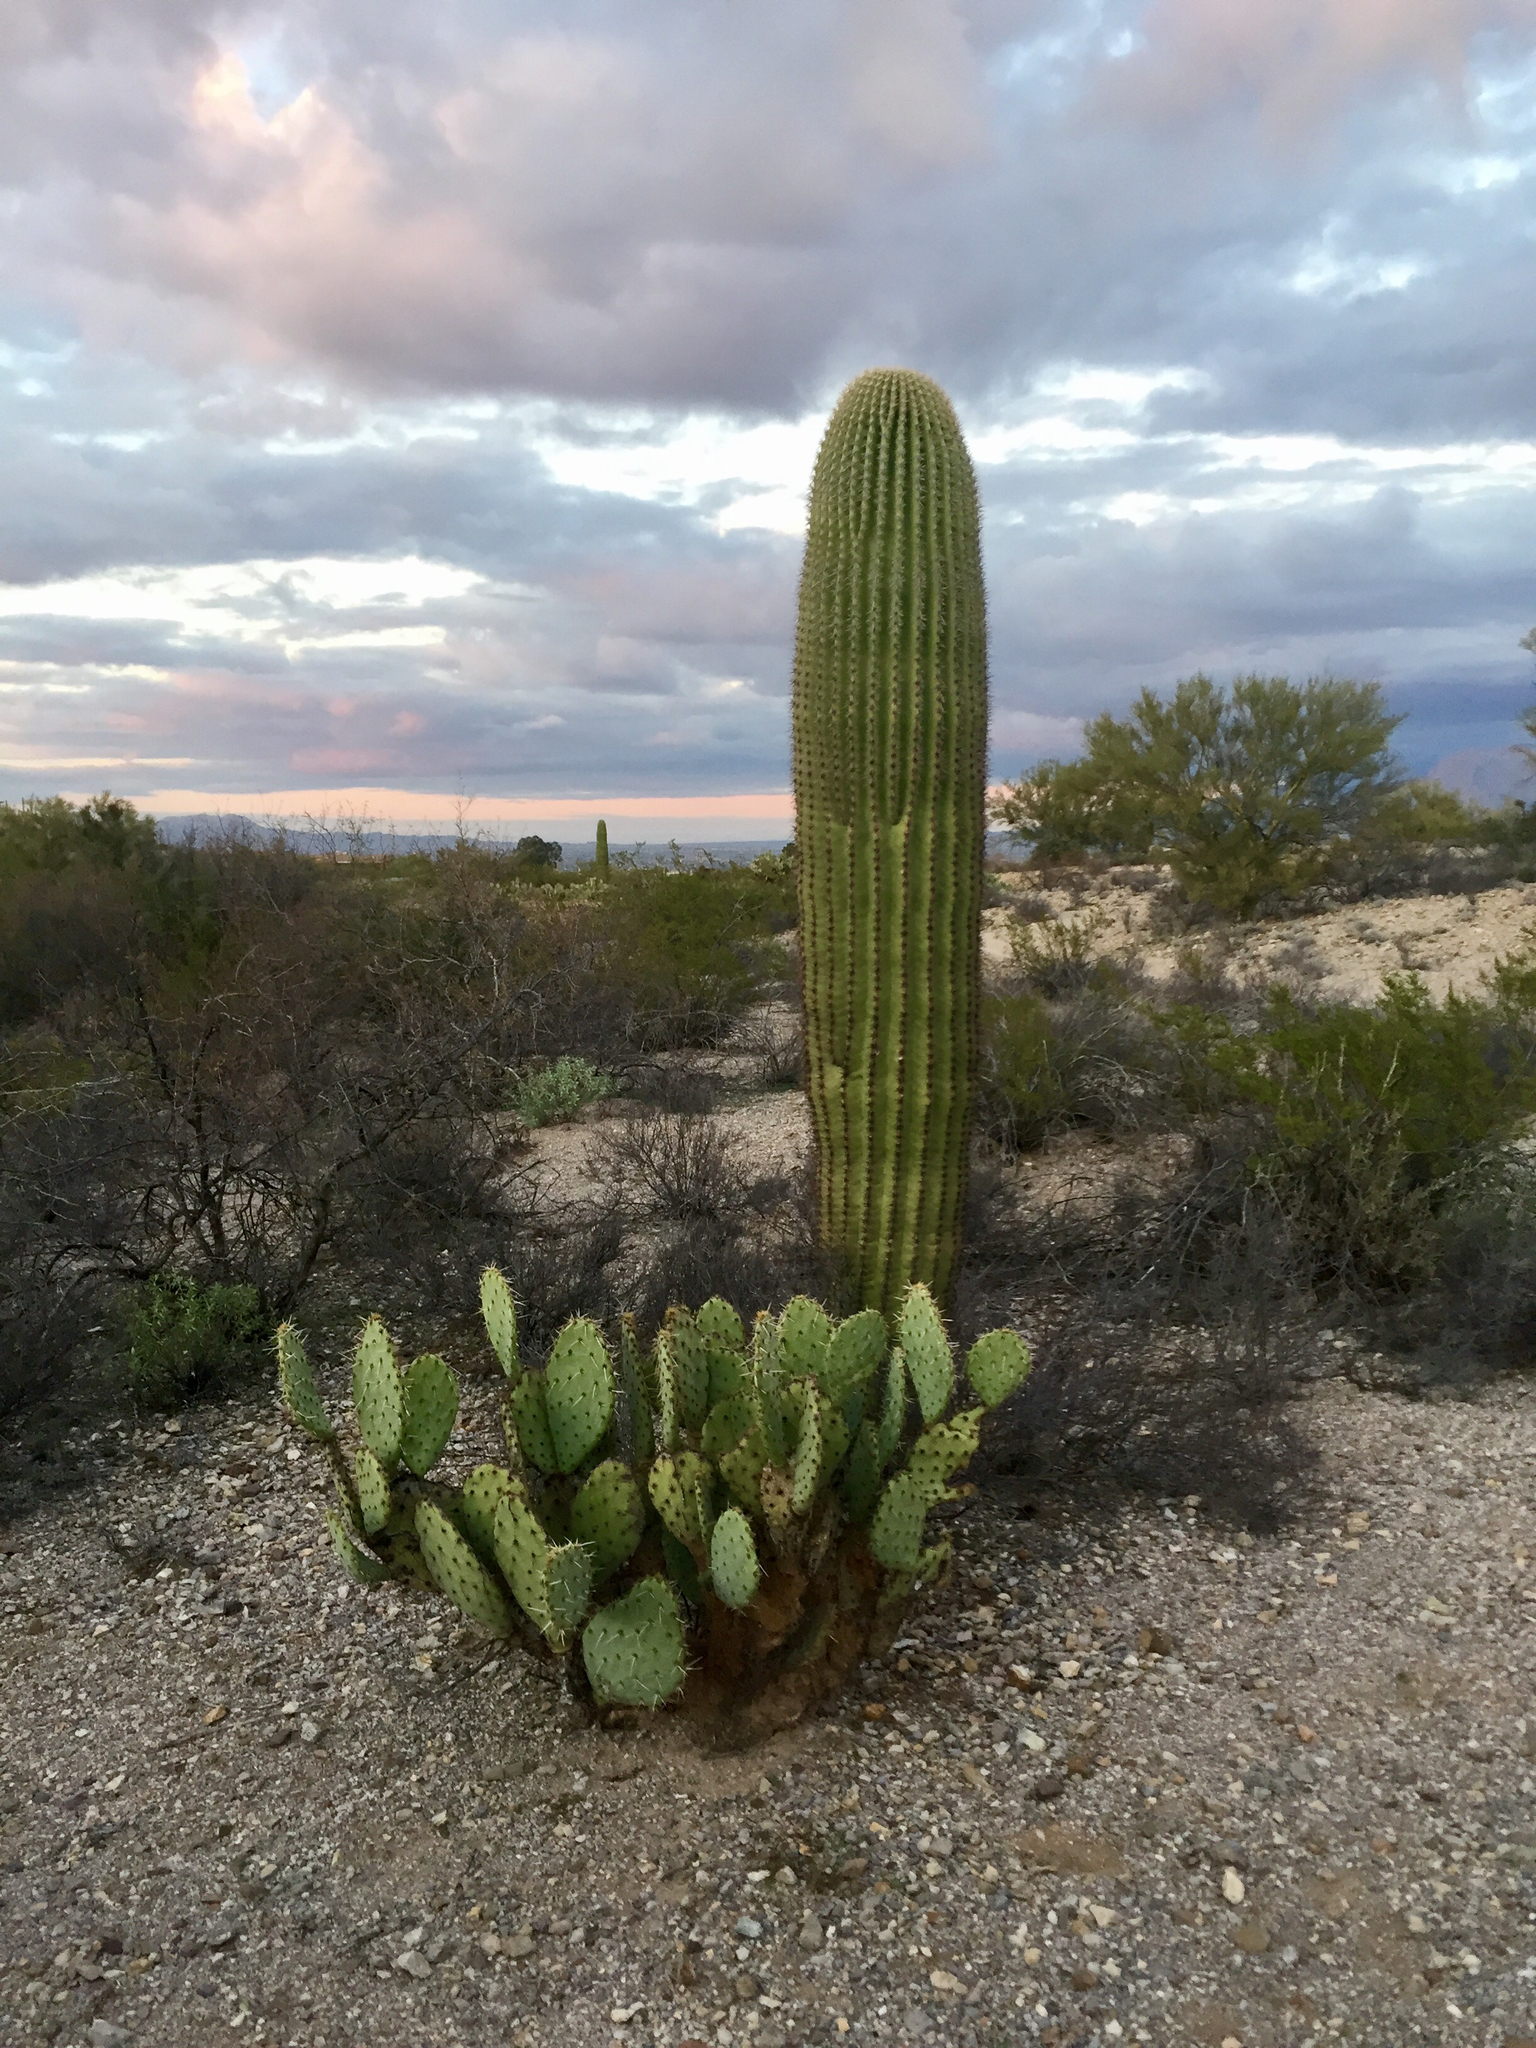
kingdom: Plantae
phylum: Tracheophyta
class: Magnoliopsida
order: Caryophyllales
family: Cactaceae
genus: Opuntia
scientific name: Opuntia engelmannii
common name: Cactus-apple
